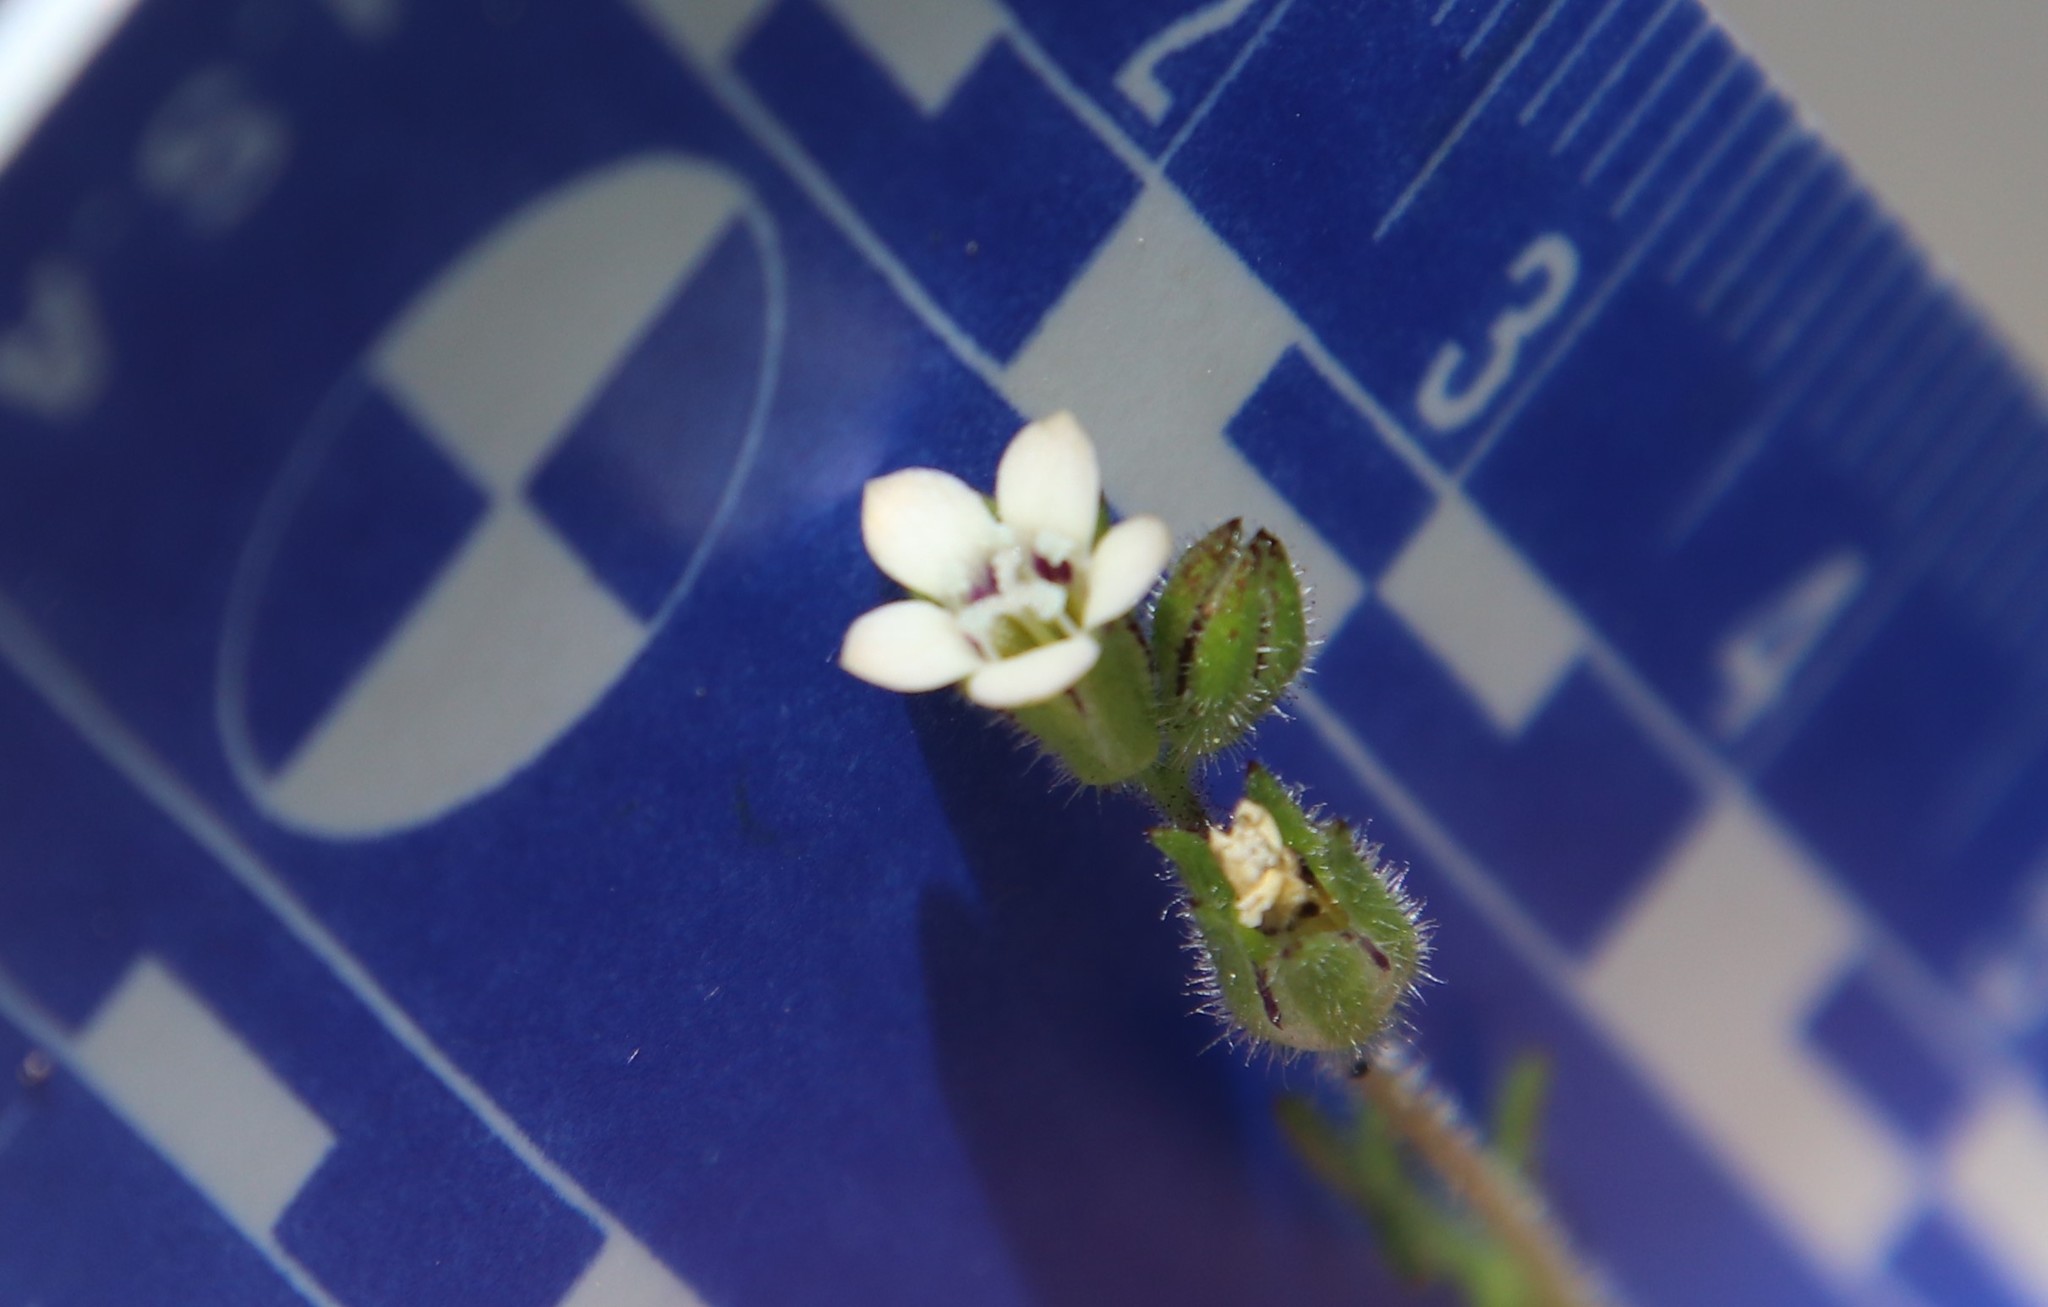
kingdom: Plantae
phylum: Tracheophyta
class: Magnoliopsida
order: Ericales
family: Polemoniaceae
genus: Gilia
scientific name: Gilia clivorum
